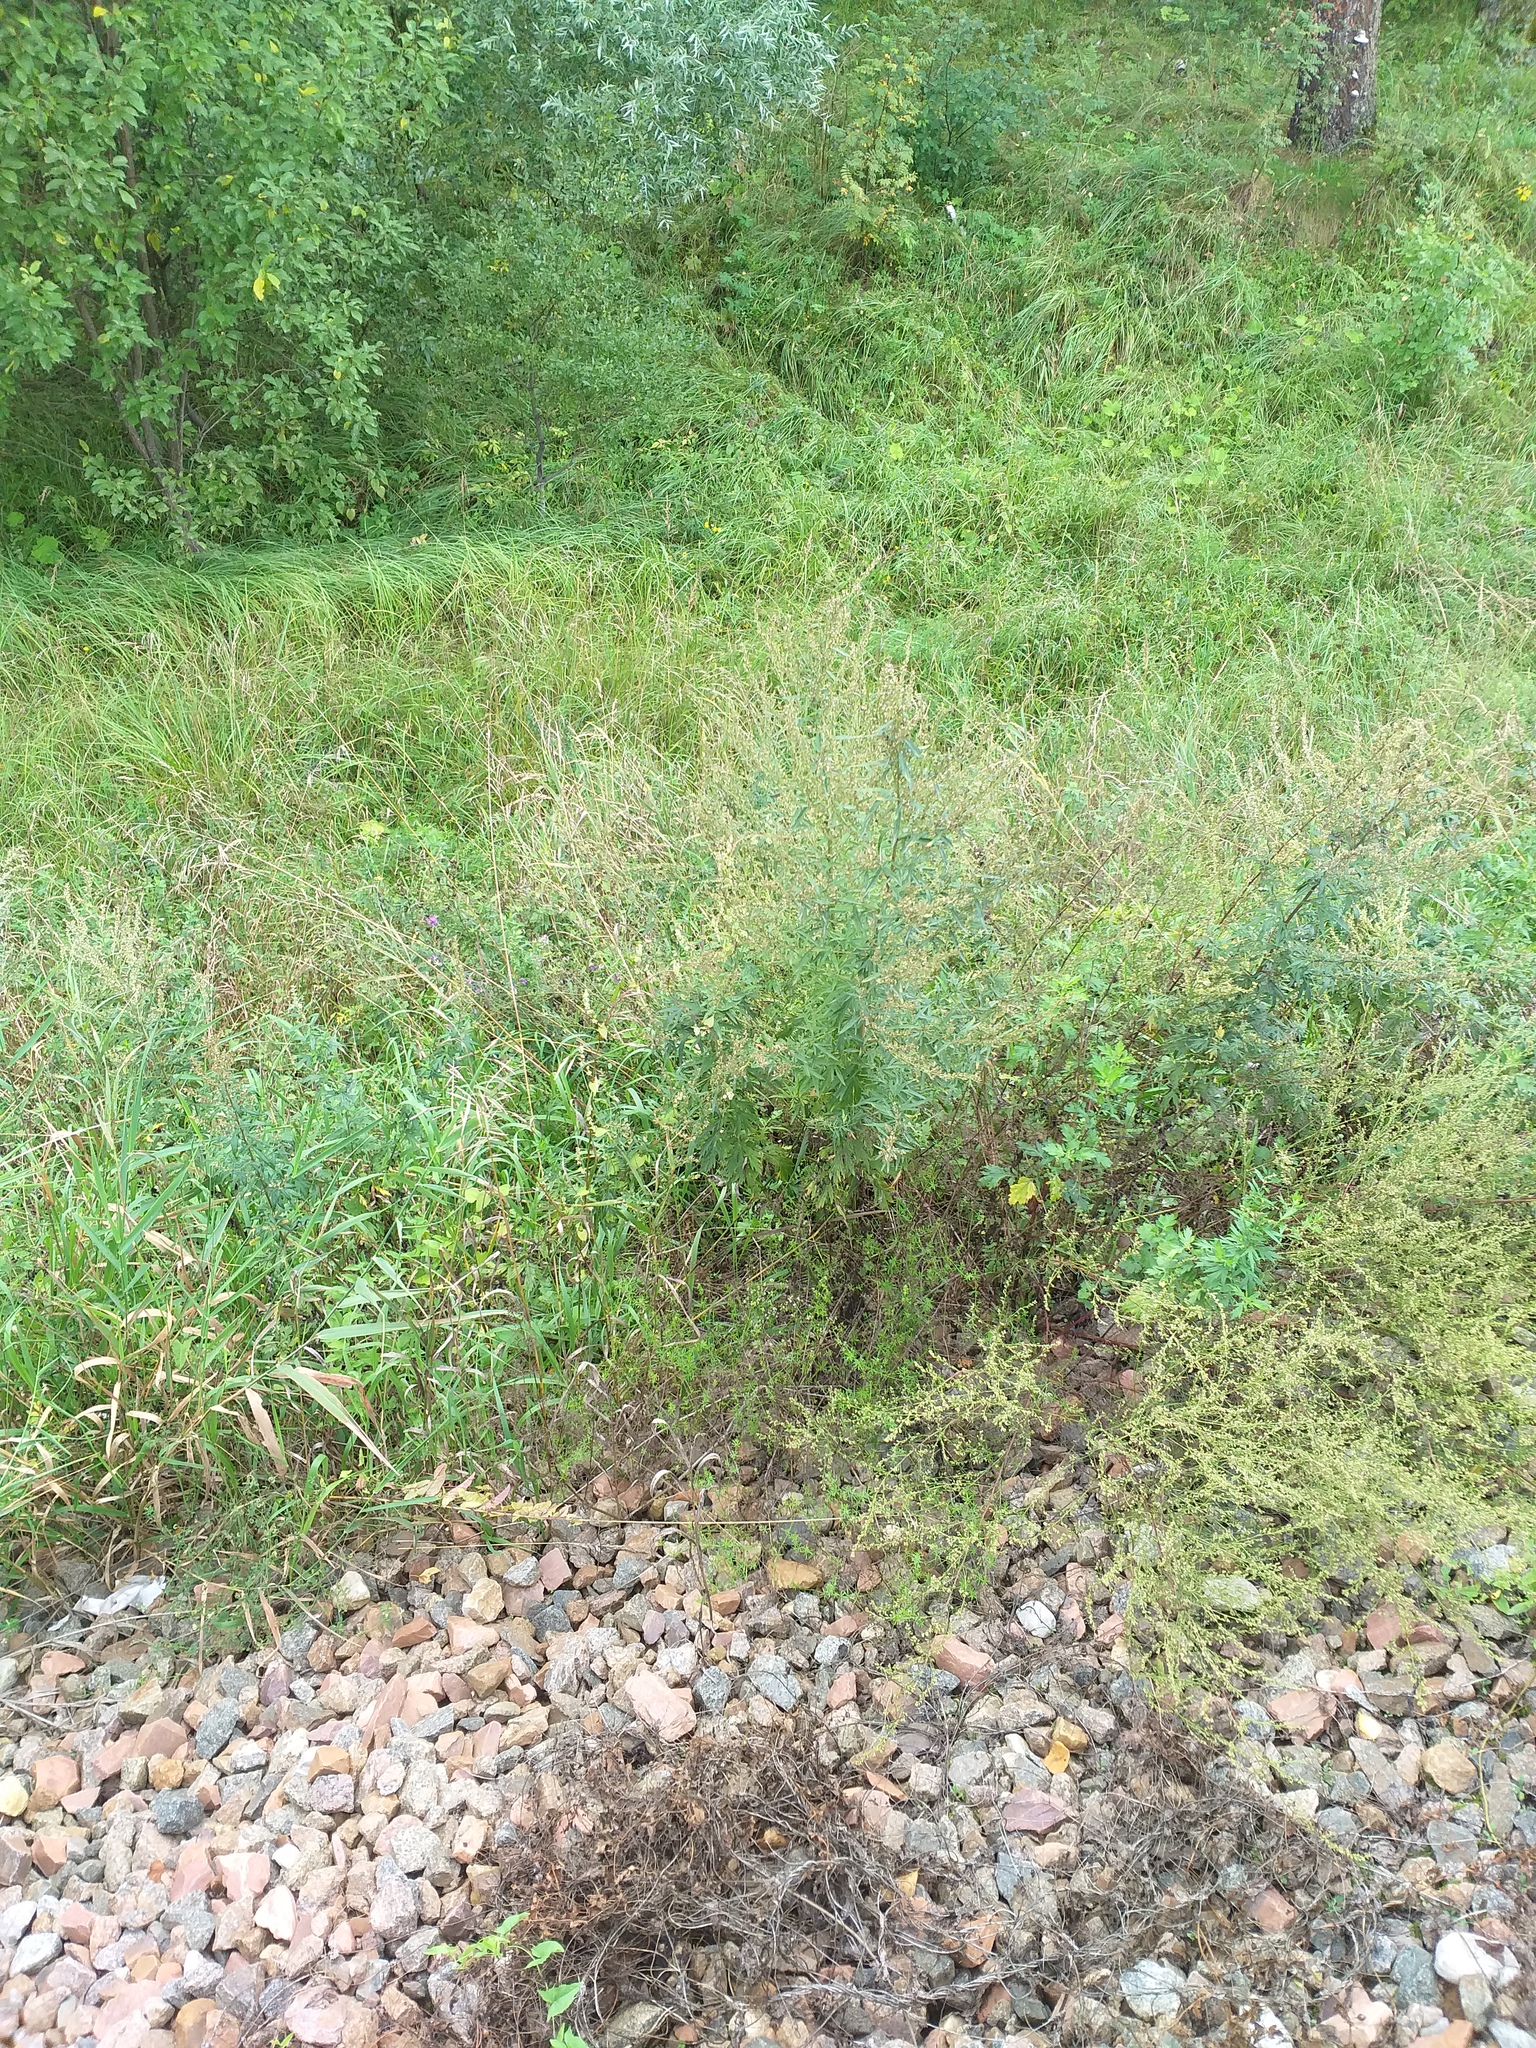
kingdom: Plantae
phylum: Tracheophyta
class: Magnoliopsida
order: Caryophyllales
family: Polygonaceae
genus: Fallopia
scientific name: Fallopia dumetorum
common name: Copse-bindweed
